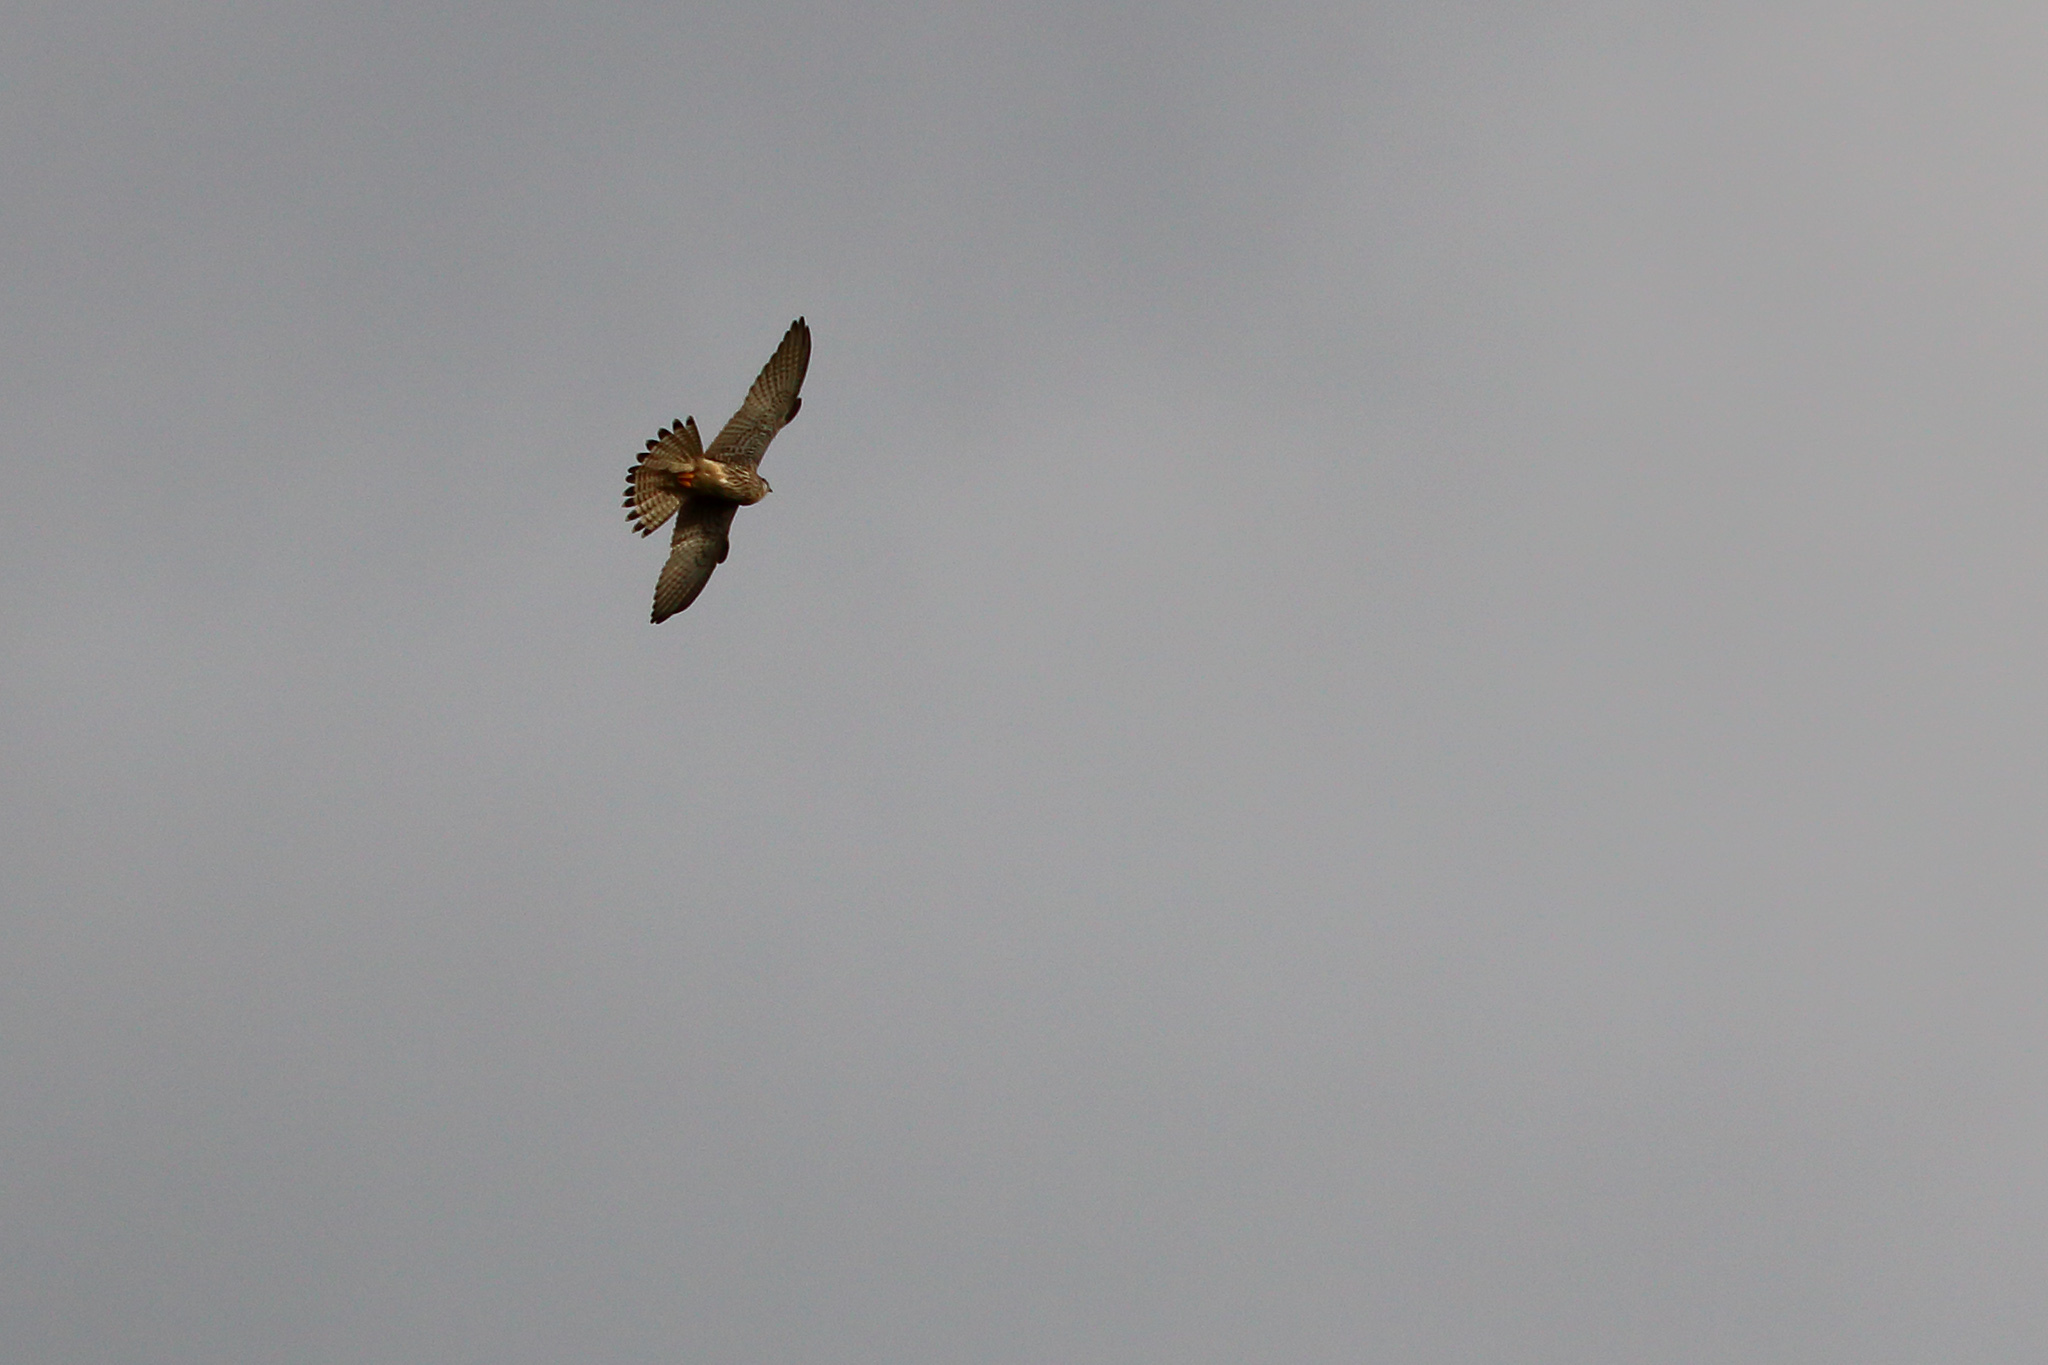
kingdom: Animalia
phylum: Chordata
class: Aves
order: Falconiformes
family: Falconidae
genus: Falco
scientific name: Falco tinnunculus
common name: Common kestrel
